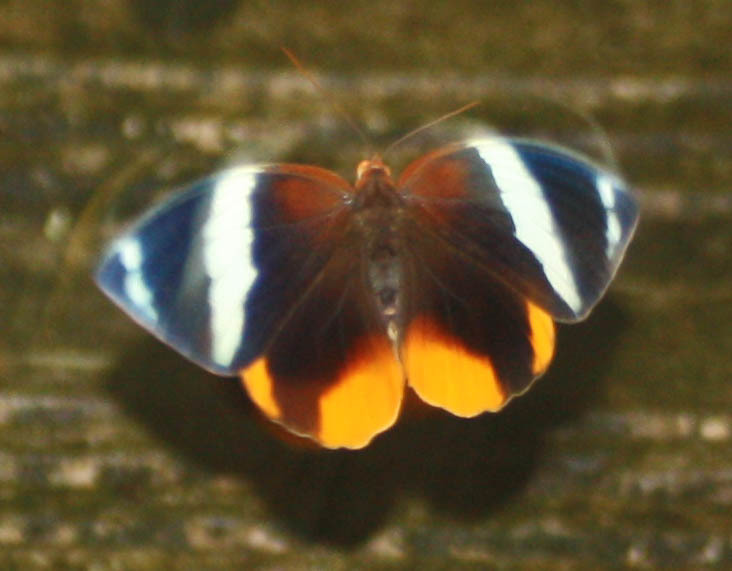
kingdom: Animalia
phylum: Arthropoda
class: Insecta
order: Lepidoptera
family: Nymphalidae
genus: Thauria
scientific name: Thauria lathy
